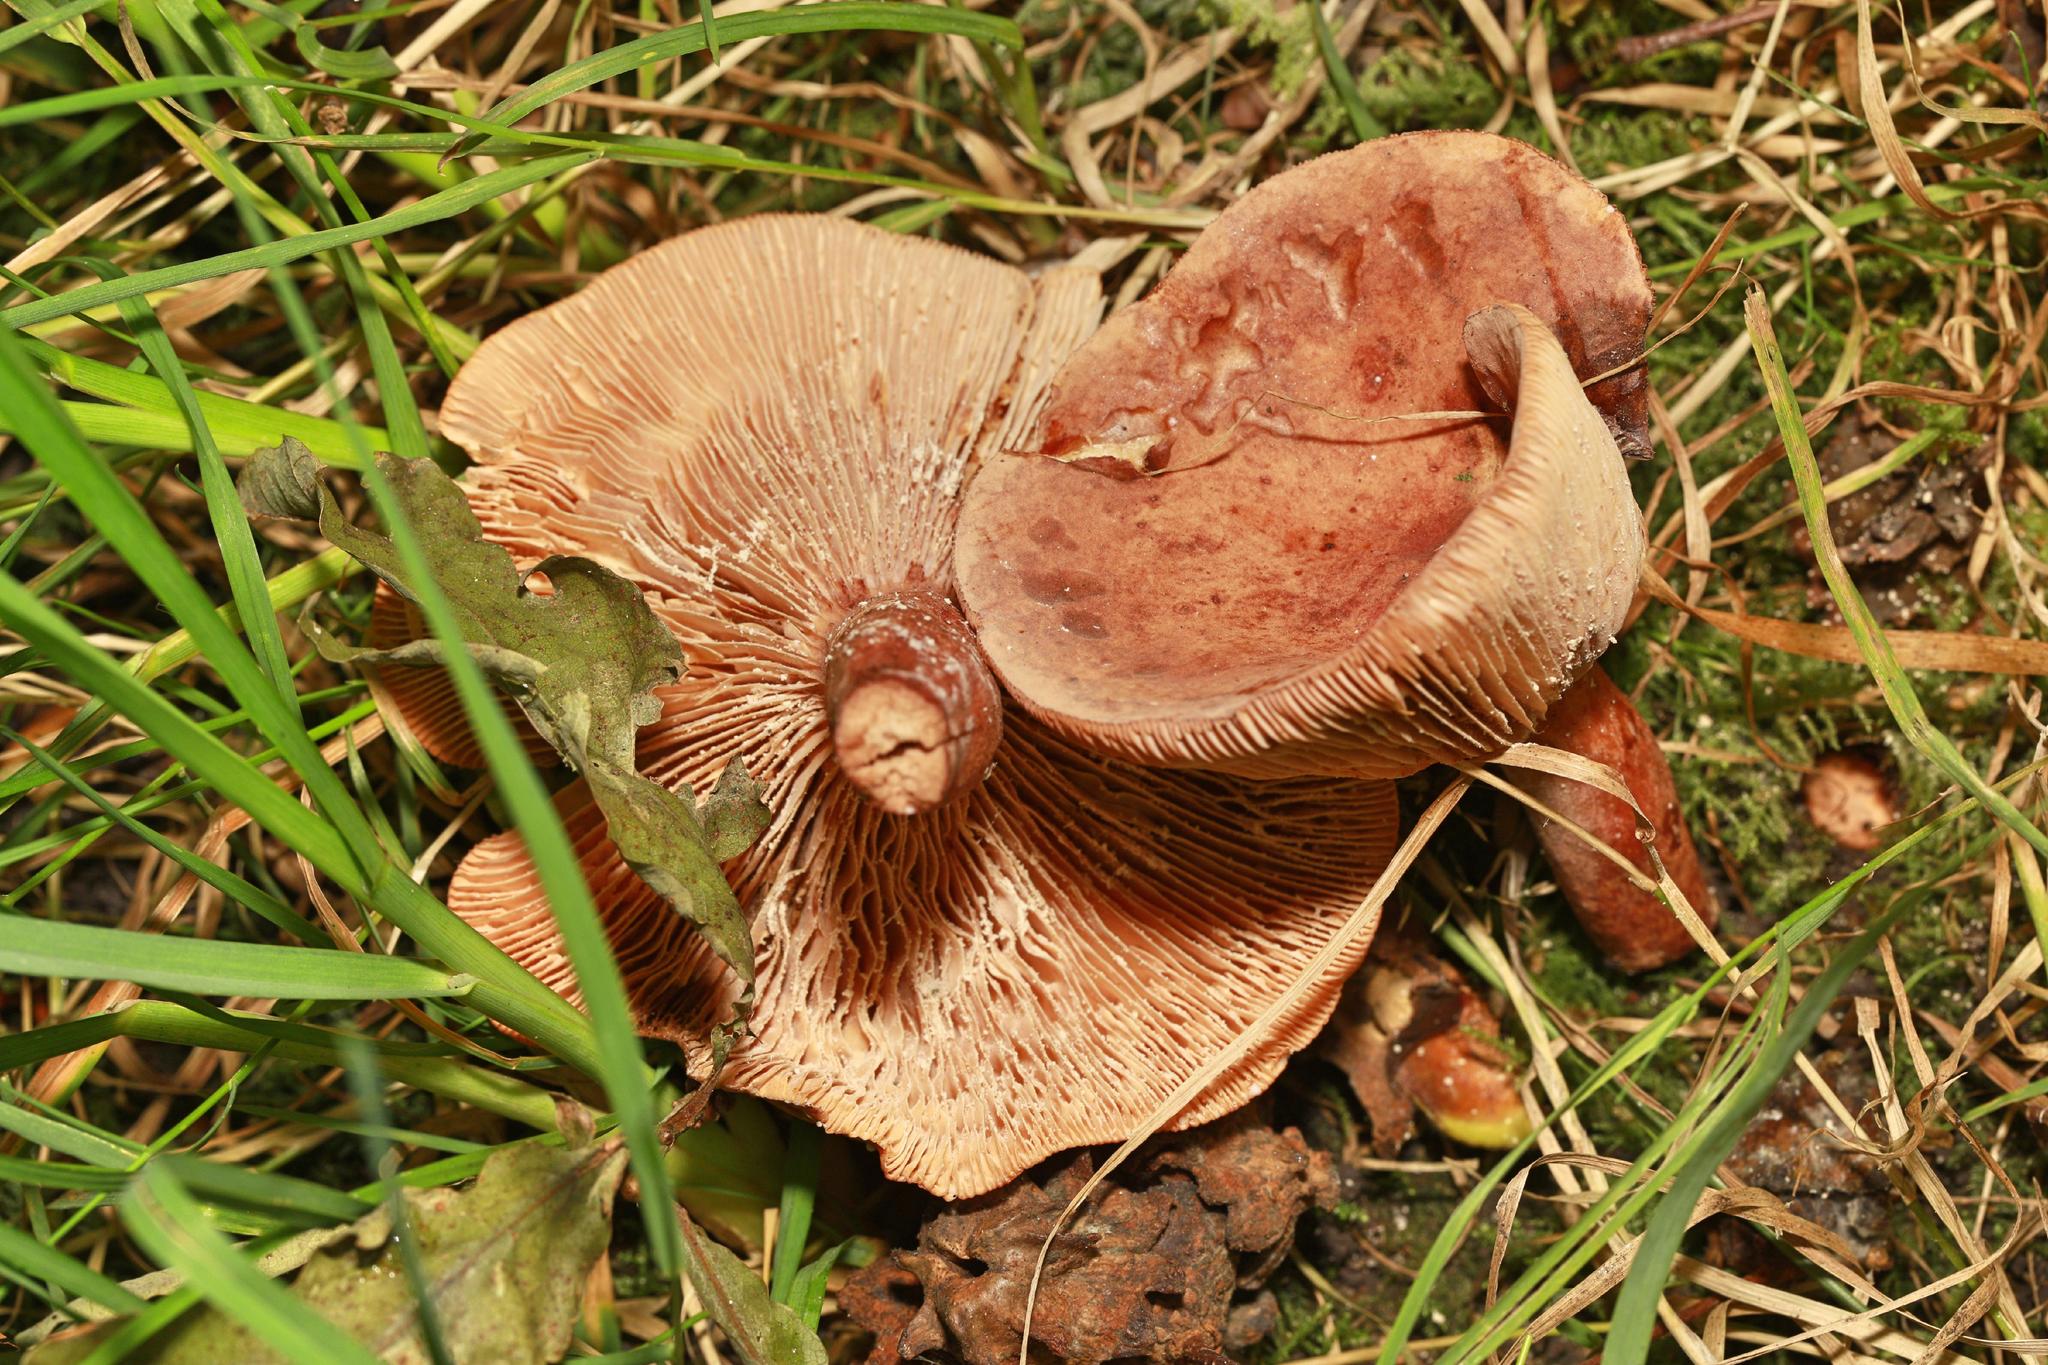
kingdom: Fungi
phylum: Basidiomycota
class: Agaricomycetes
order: Boletales
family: Paxillaceae
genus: Paxillus
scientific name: Paxillus involutus
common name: Brown roll rim
